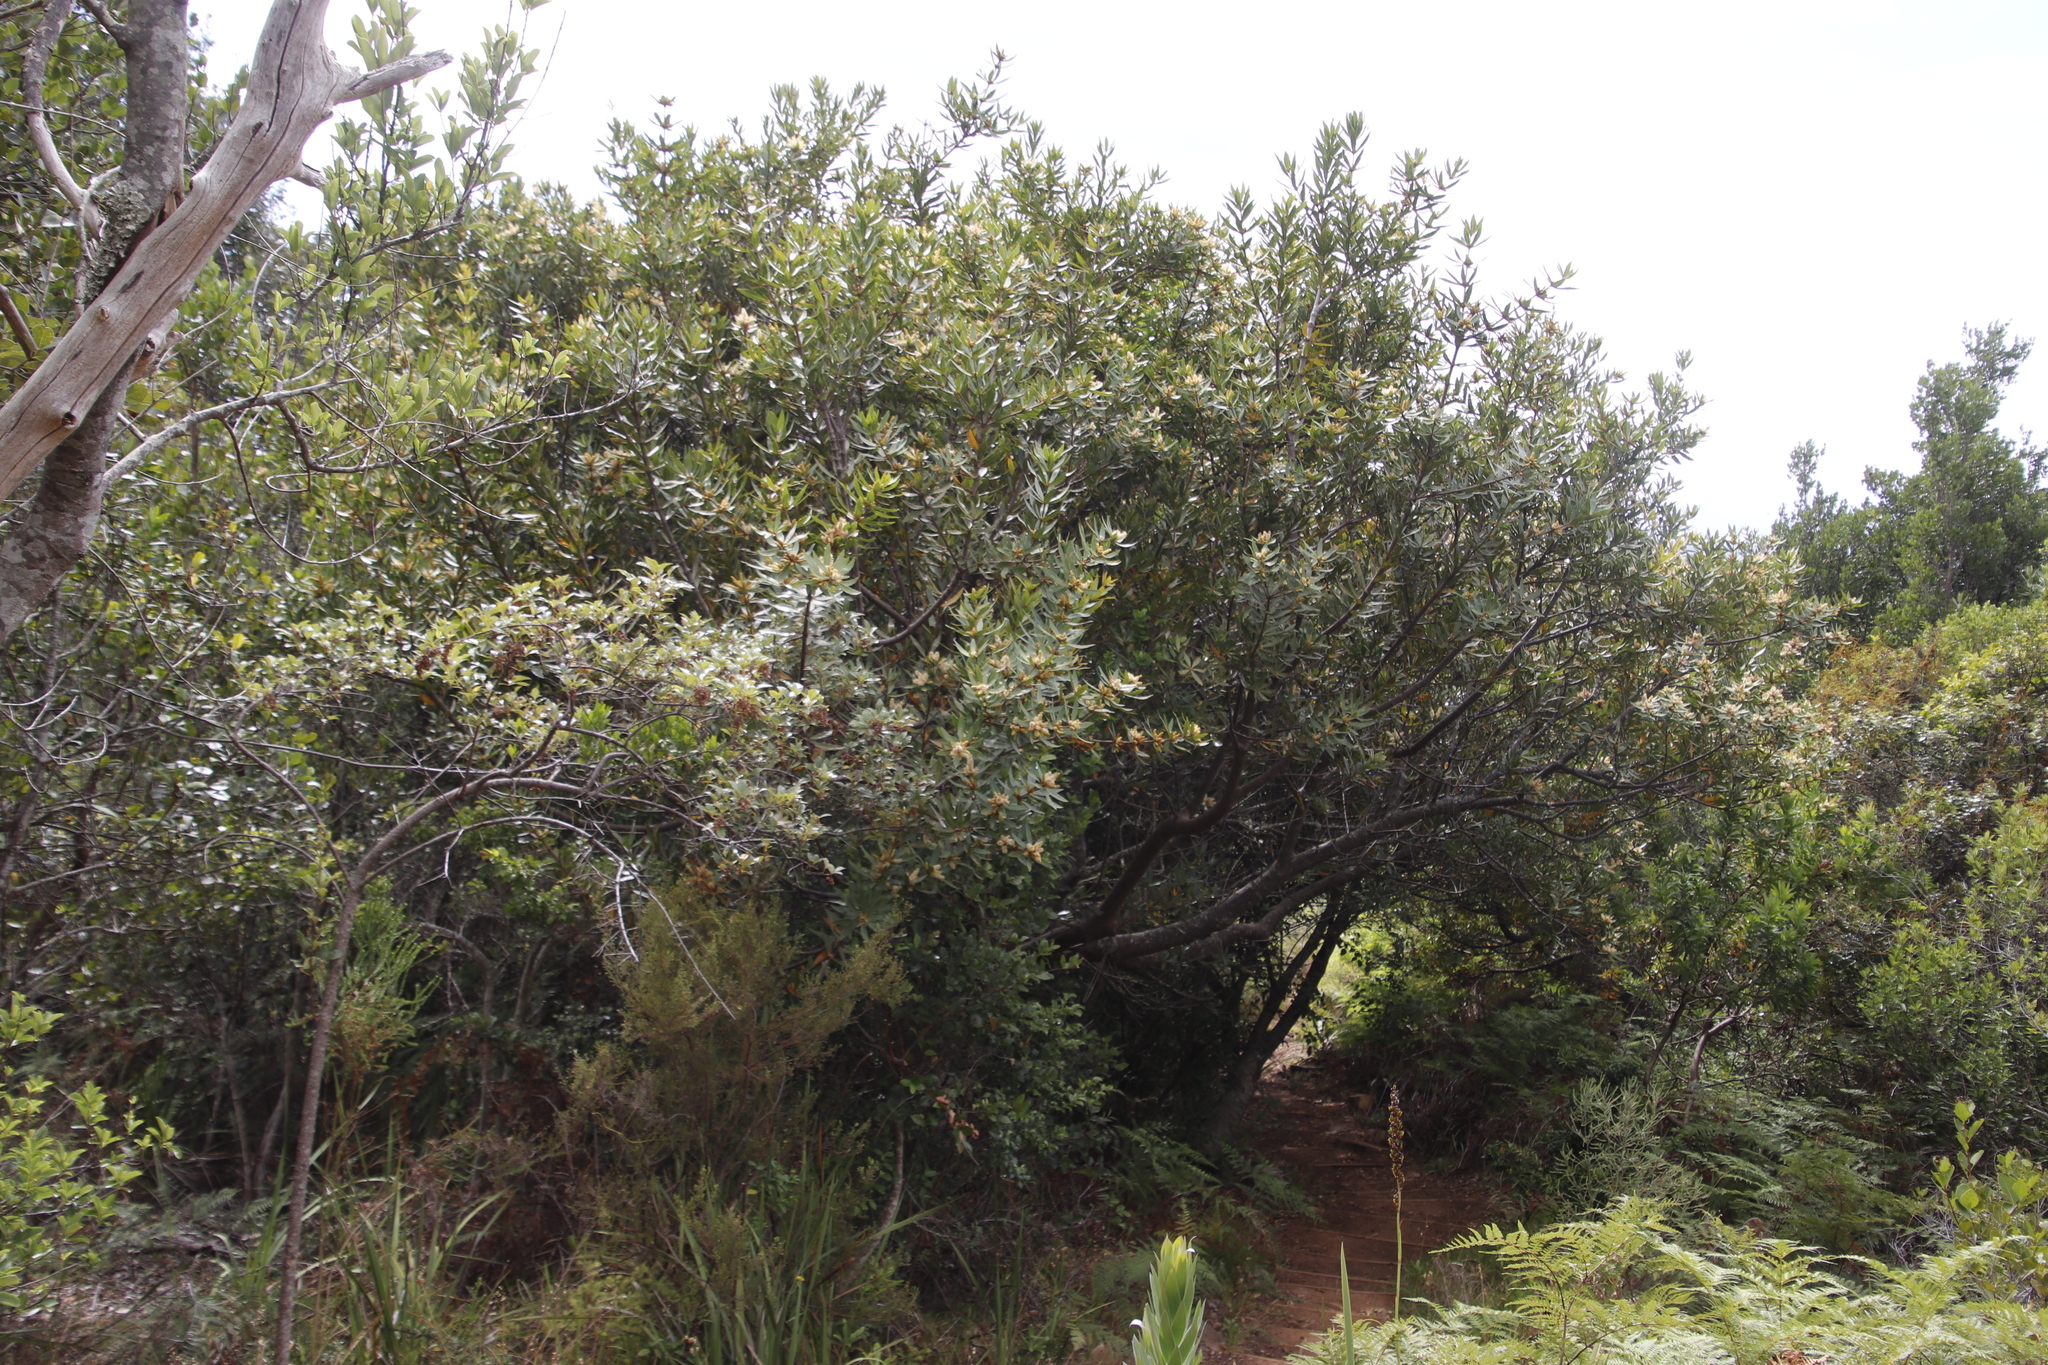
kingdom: Plantae
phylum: Tracheophyta
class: Magnoliopsida
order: Proteales
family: Proteaceae
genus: Brabejum
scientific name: Brabejum stellatifolium
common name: Wild almond
